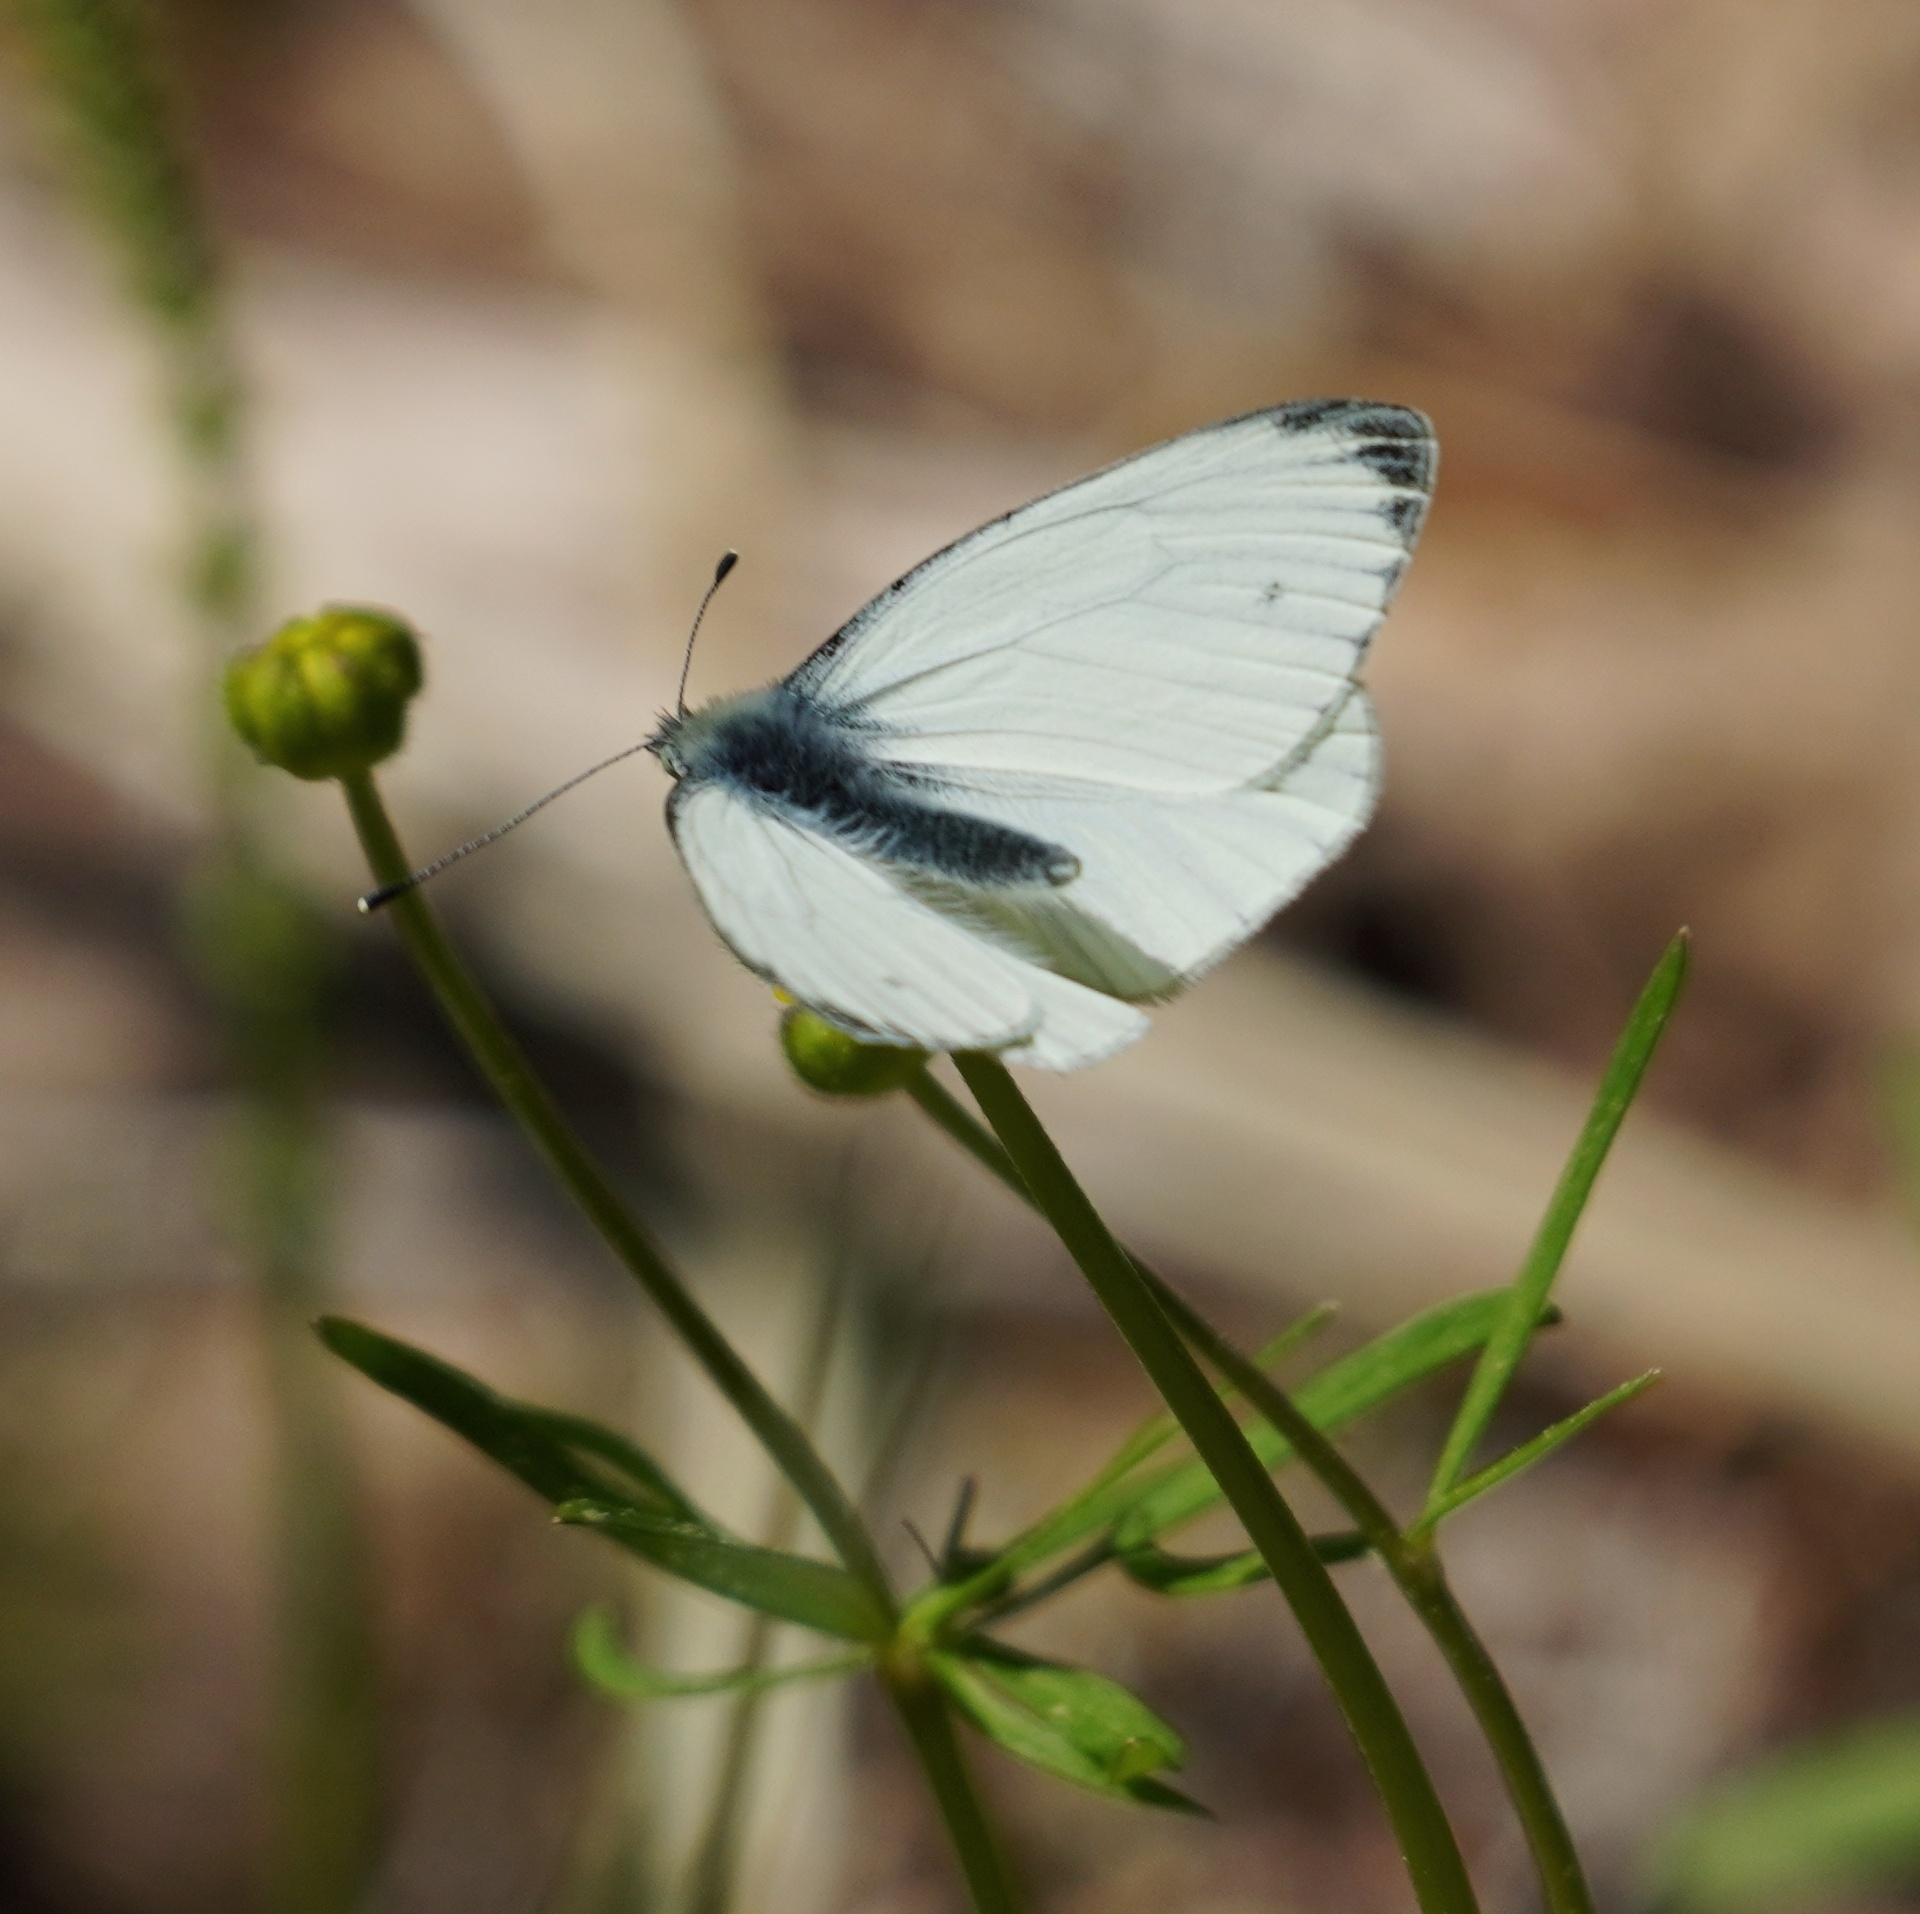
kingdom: Animalia
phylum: Arthropoda
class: Insecta
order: Lepidoptera
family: Pieridae
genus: Pieris
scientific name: Pieris napi
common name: Green-veined white
